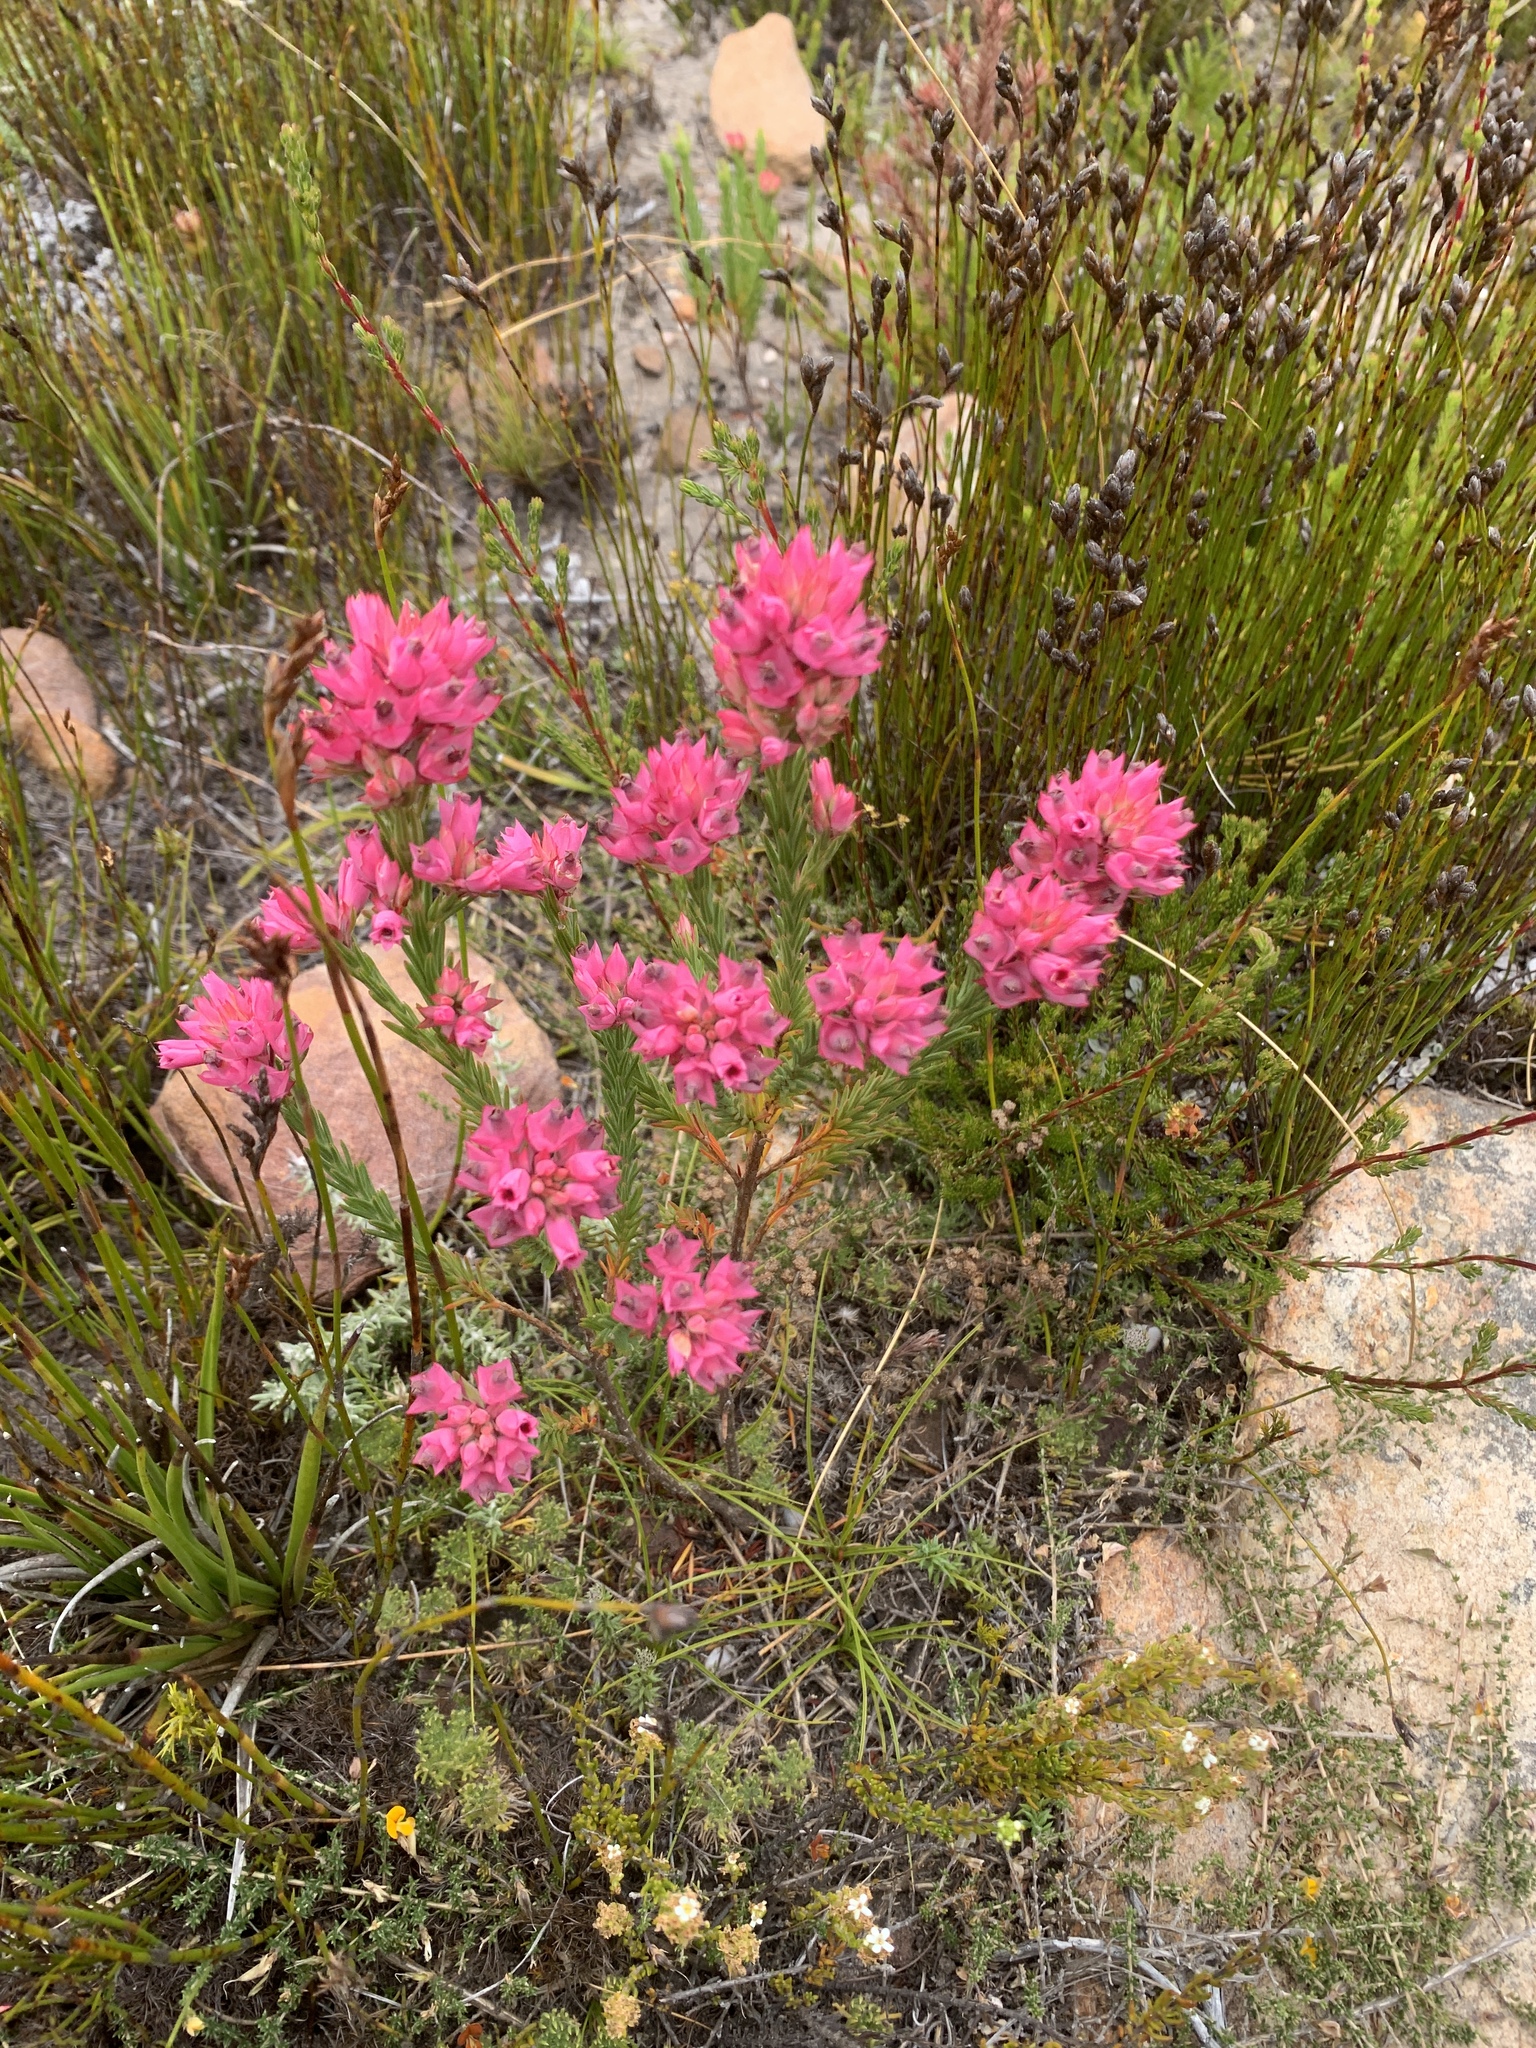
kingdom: Plantae
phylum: Tracheophyta
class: Magnoliopsida
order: Ericales
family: Ericaceae
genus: Erica
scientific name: Erica taxifolia
